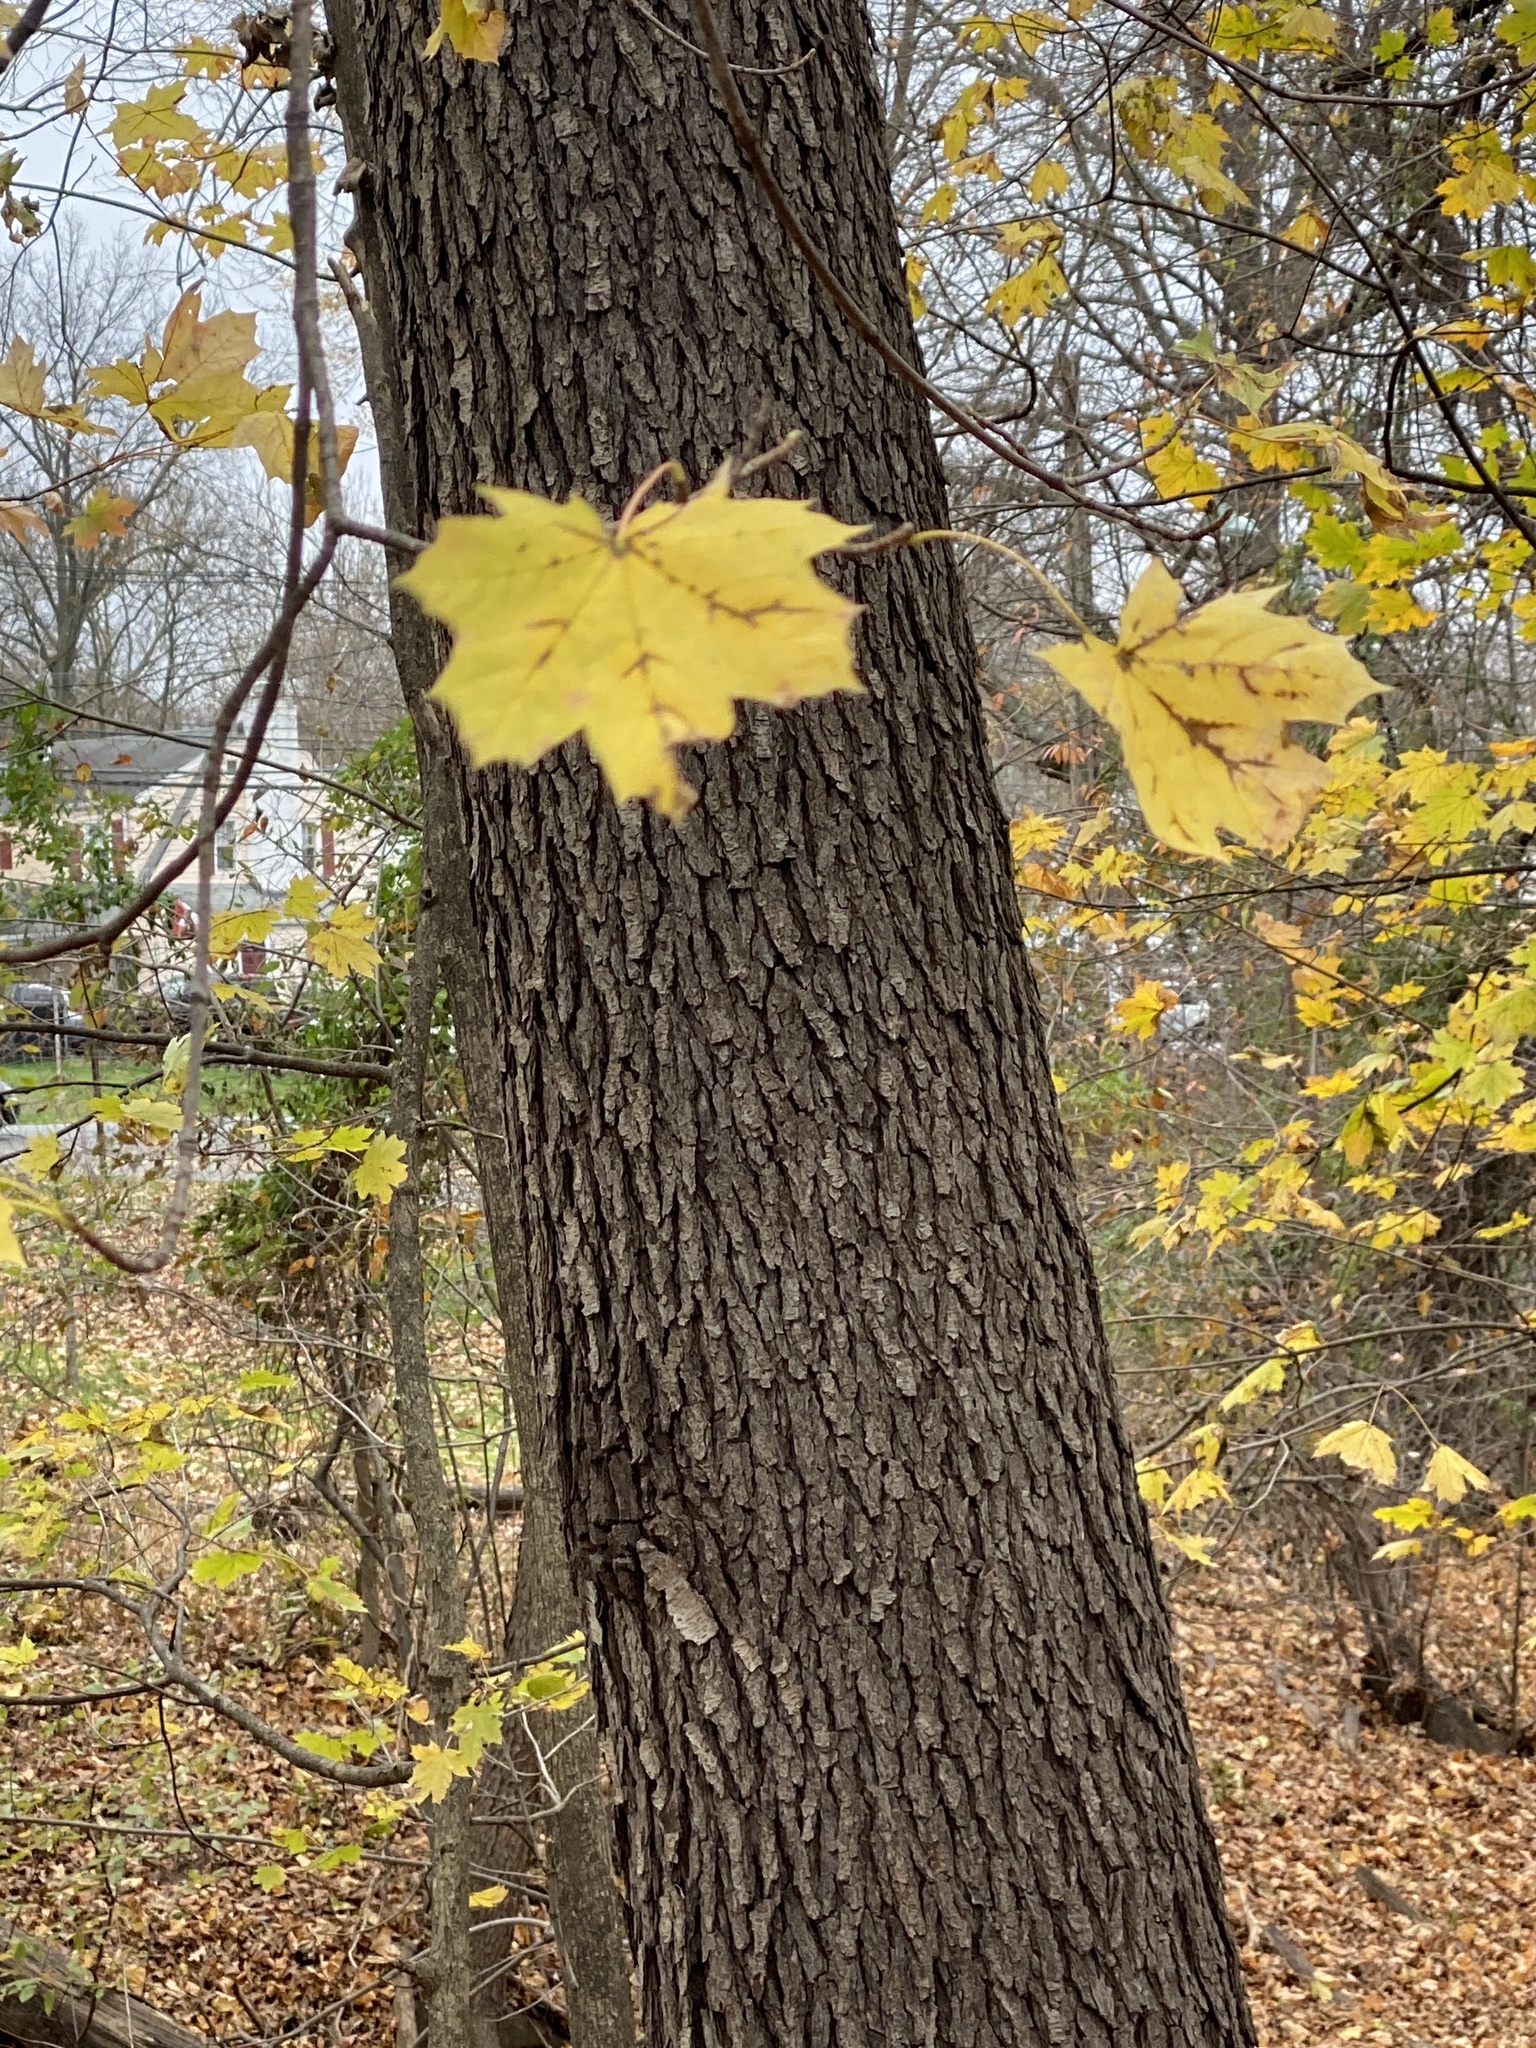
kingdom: Plantae
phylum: Tracheophyta
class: Magnoliopsida
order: Sapindales
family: Sapindaceae
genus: Acer
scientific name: Acer platanoides
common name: Norway maple
